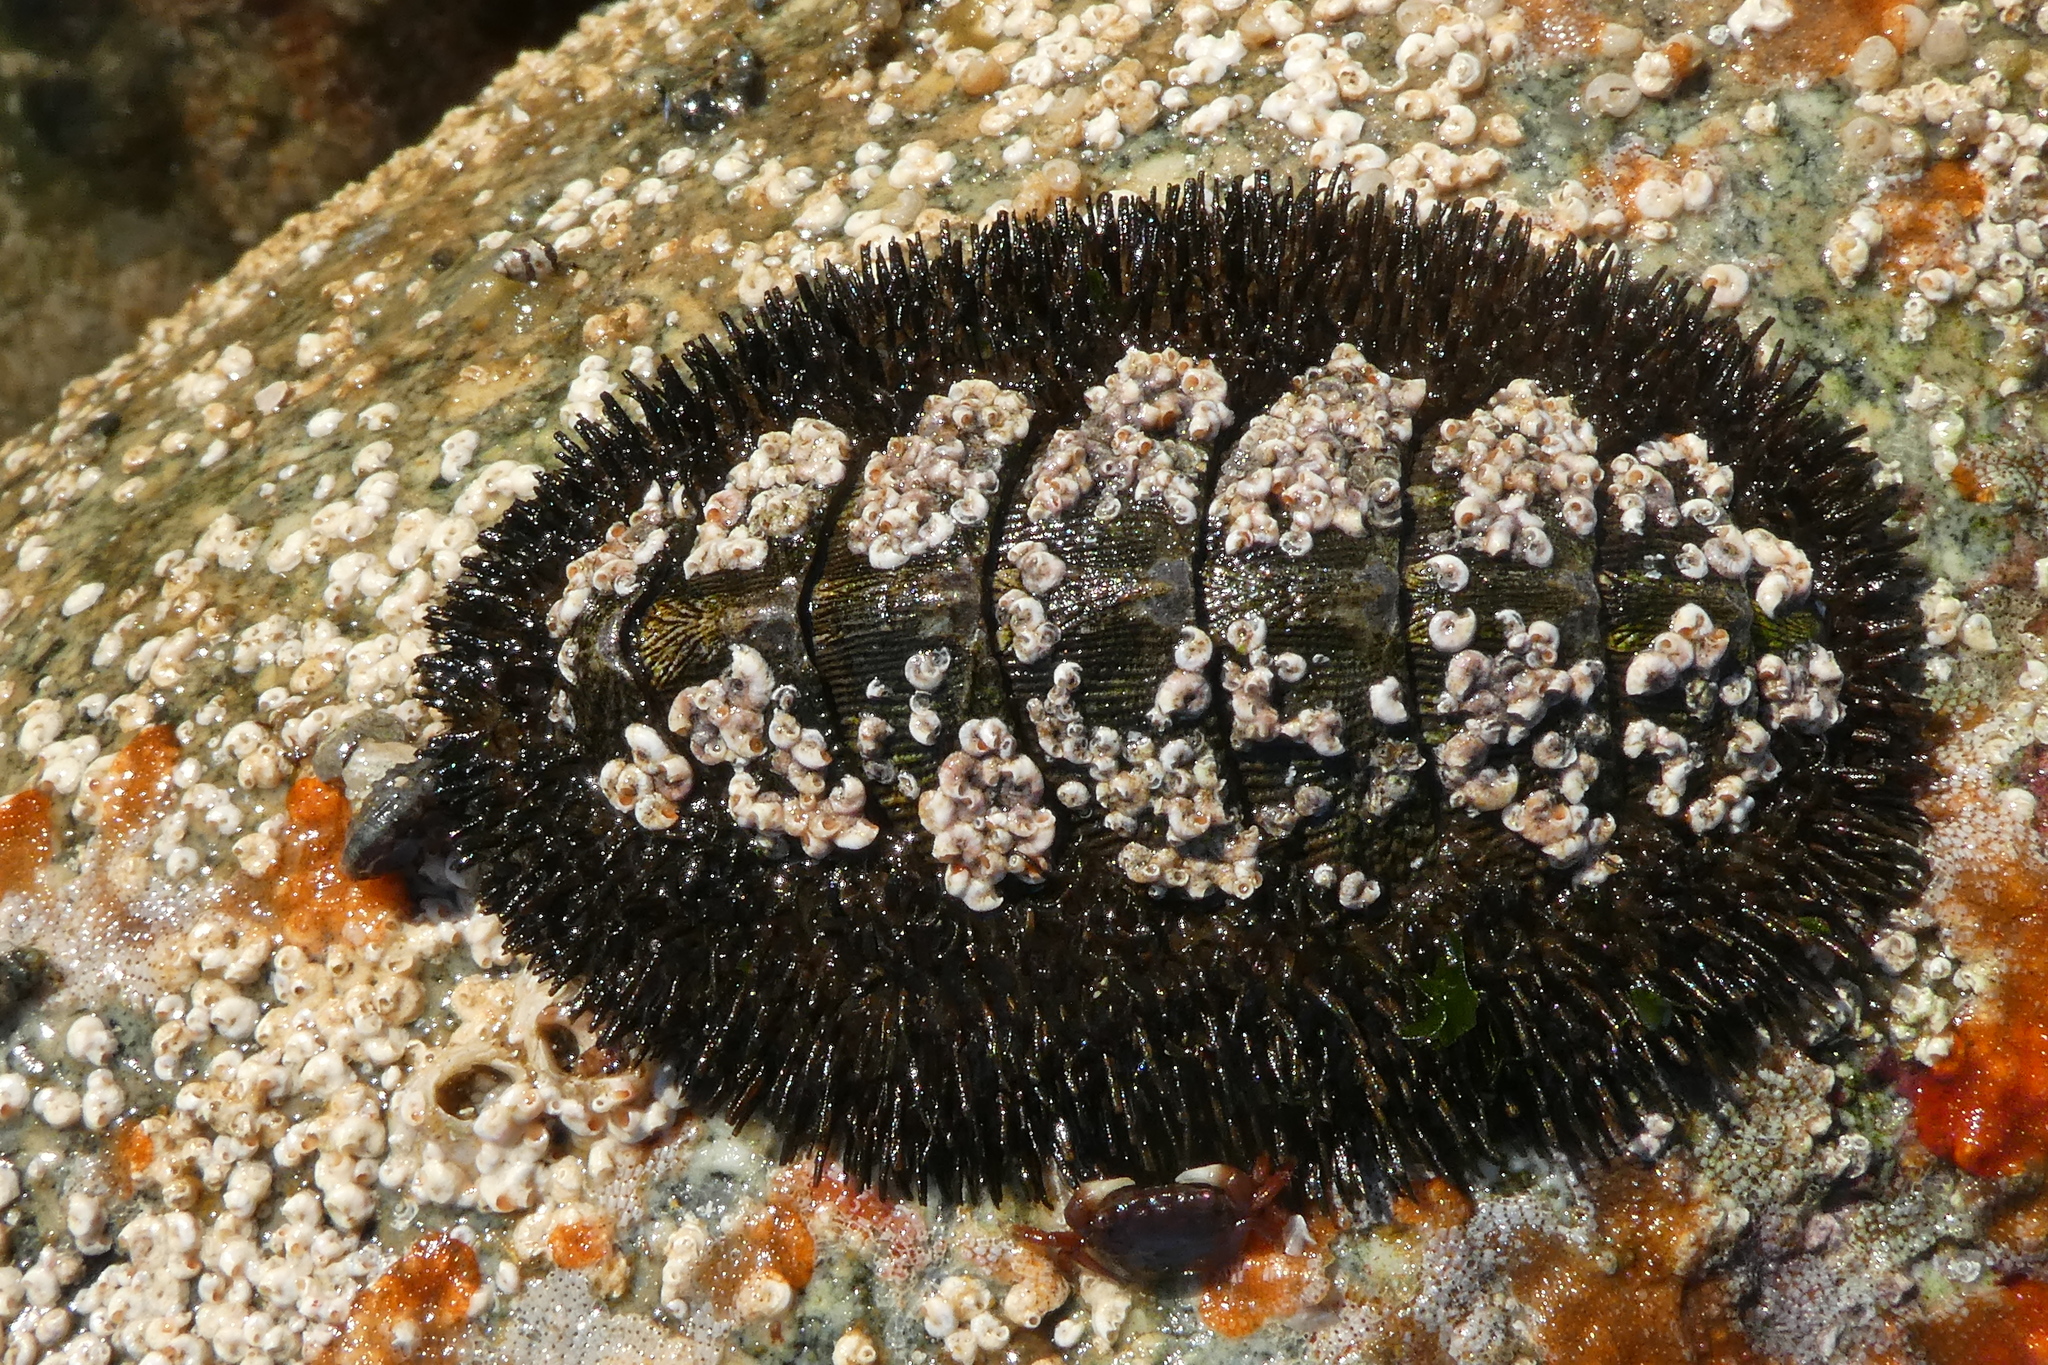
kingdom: Animalia
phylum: Mollusca
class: Polyplacophora
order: Chitonida
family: Mopaliidae
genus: Mopalia
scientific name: Mopalia muscosa
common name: Mossy chiton
